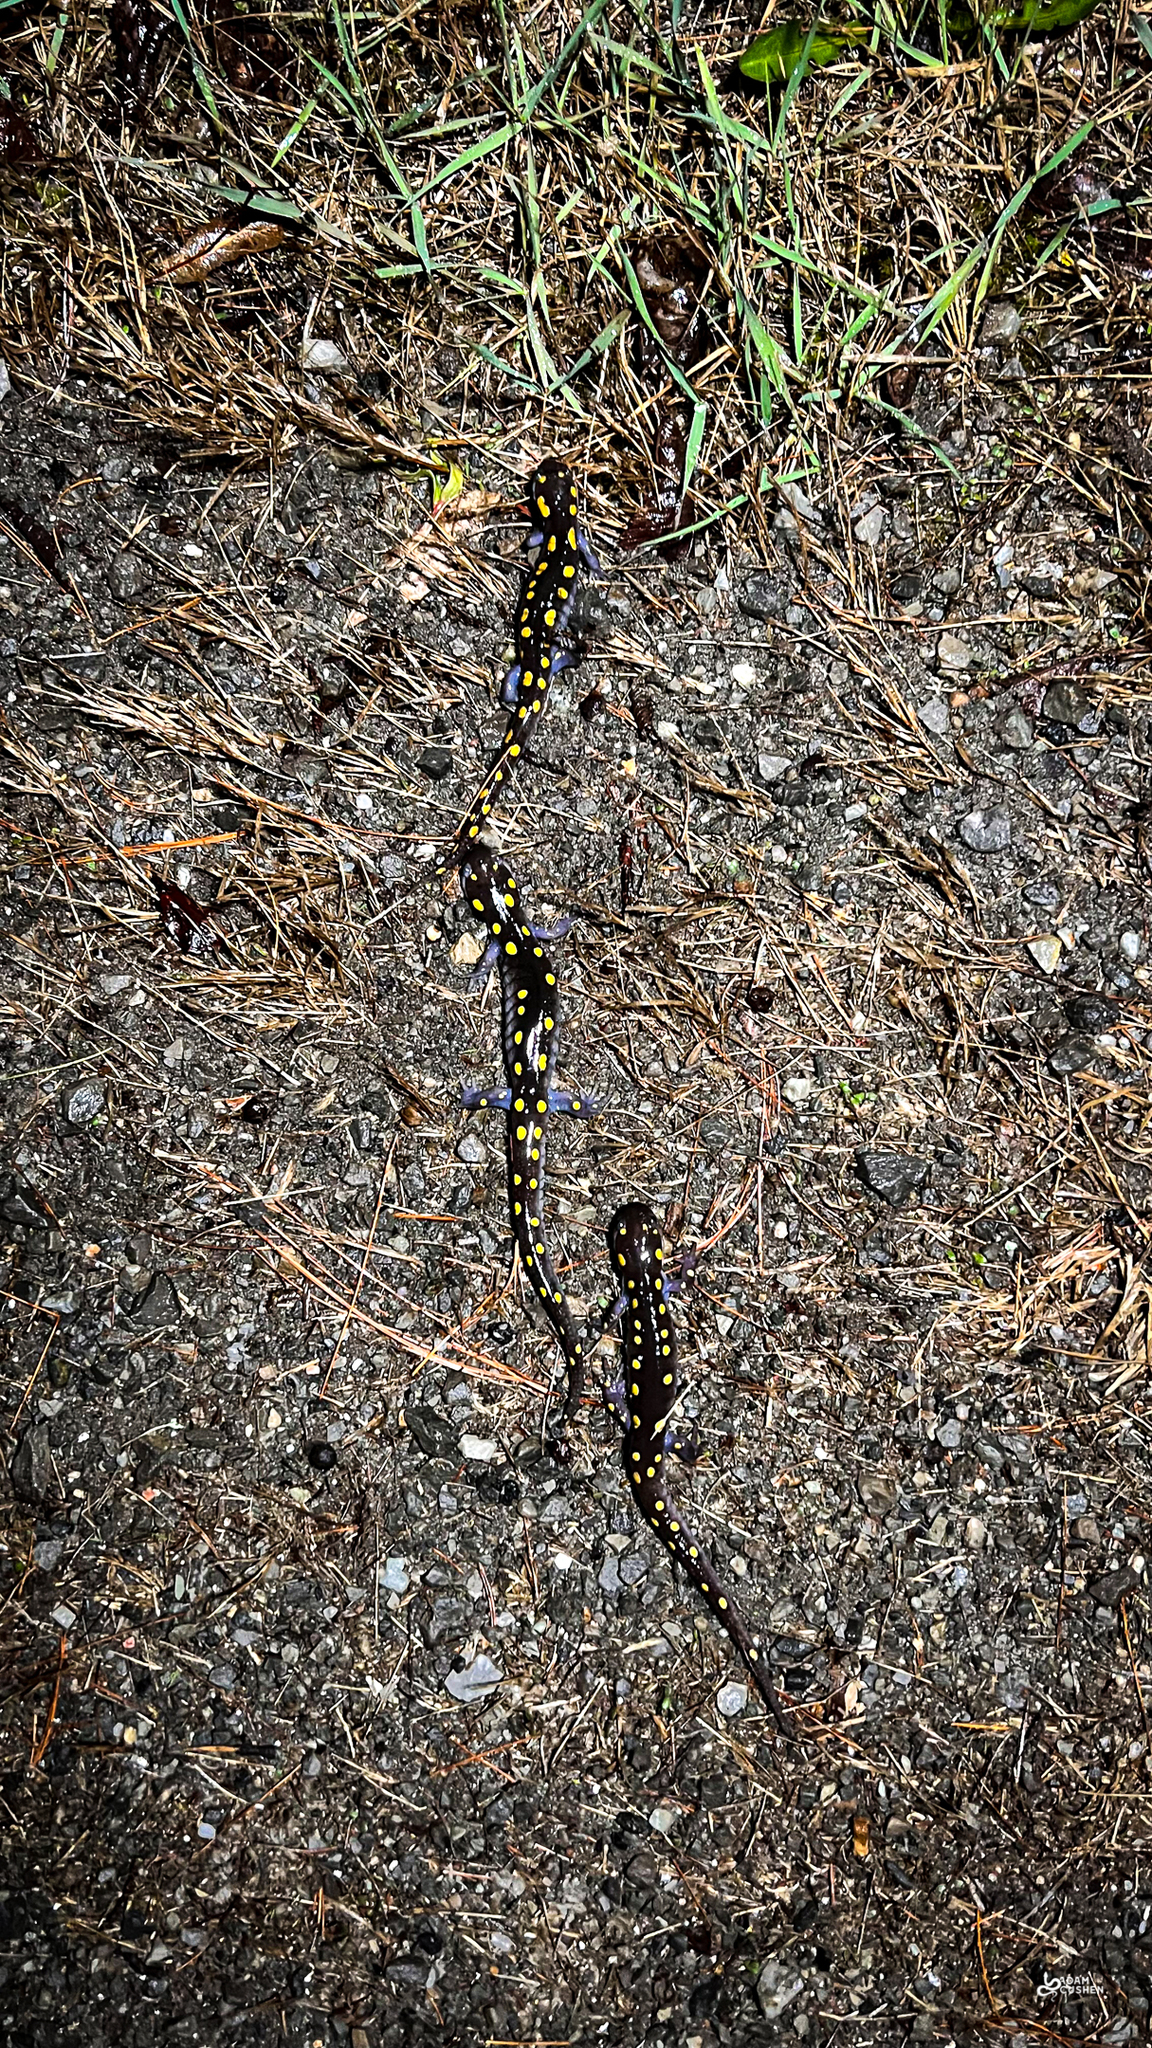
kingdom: Animalia
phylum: Chordata
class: Amphibia
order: Caudata
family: Ambystomatidae
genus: Ambystoma
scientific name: Ambystoma maculatum
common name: Spotted salamander
